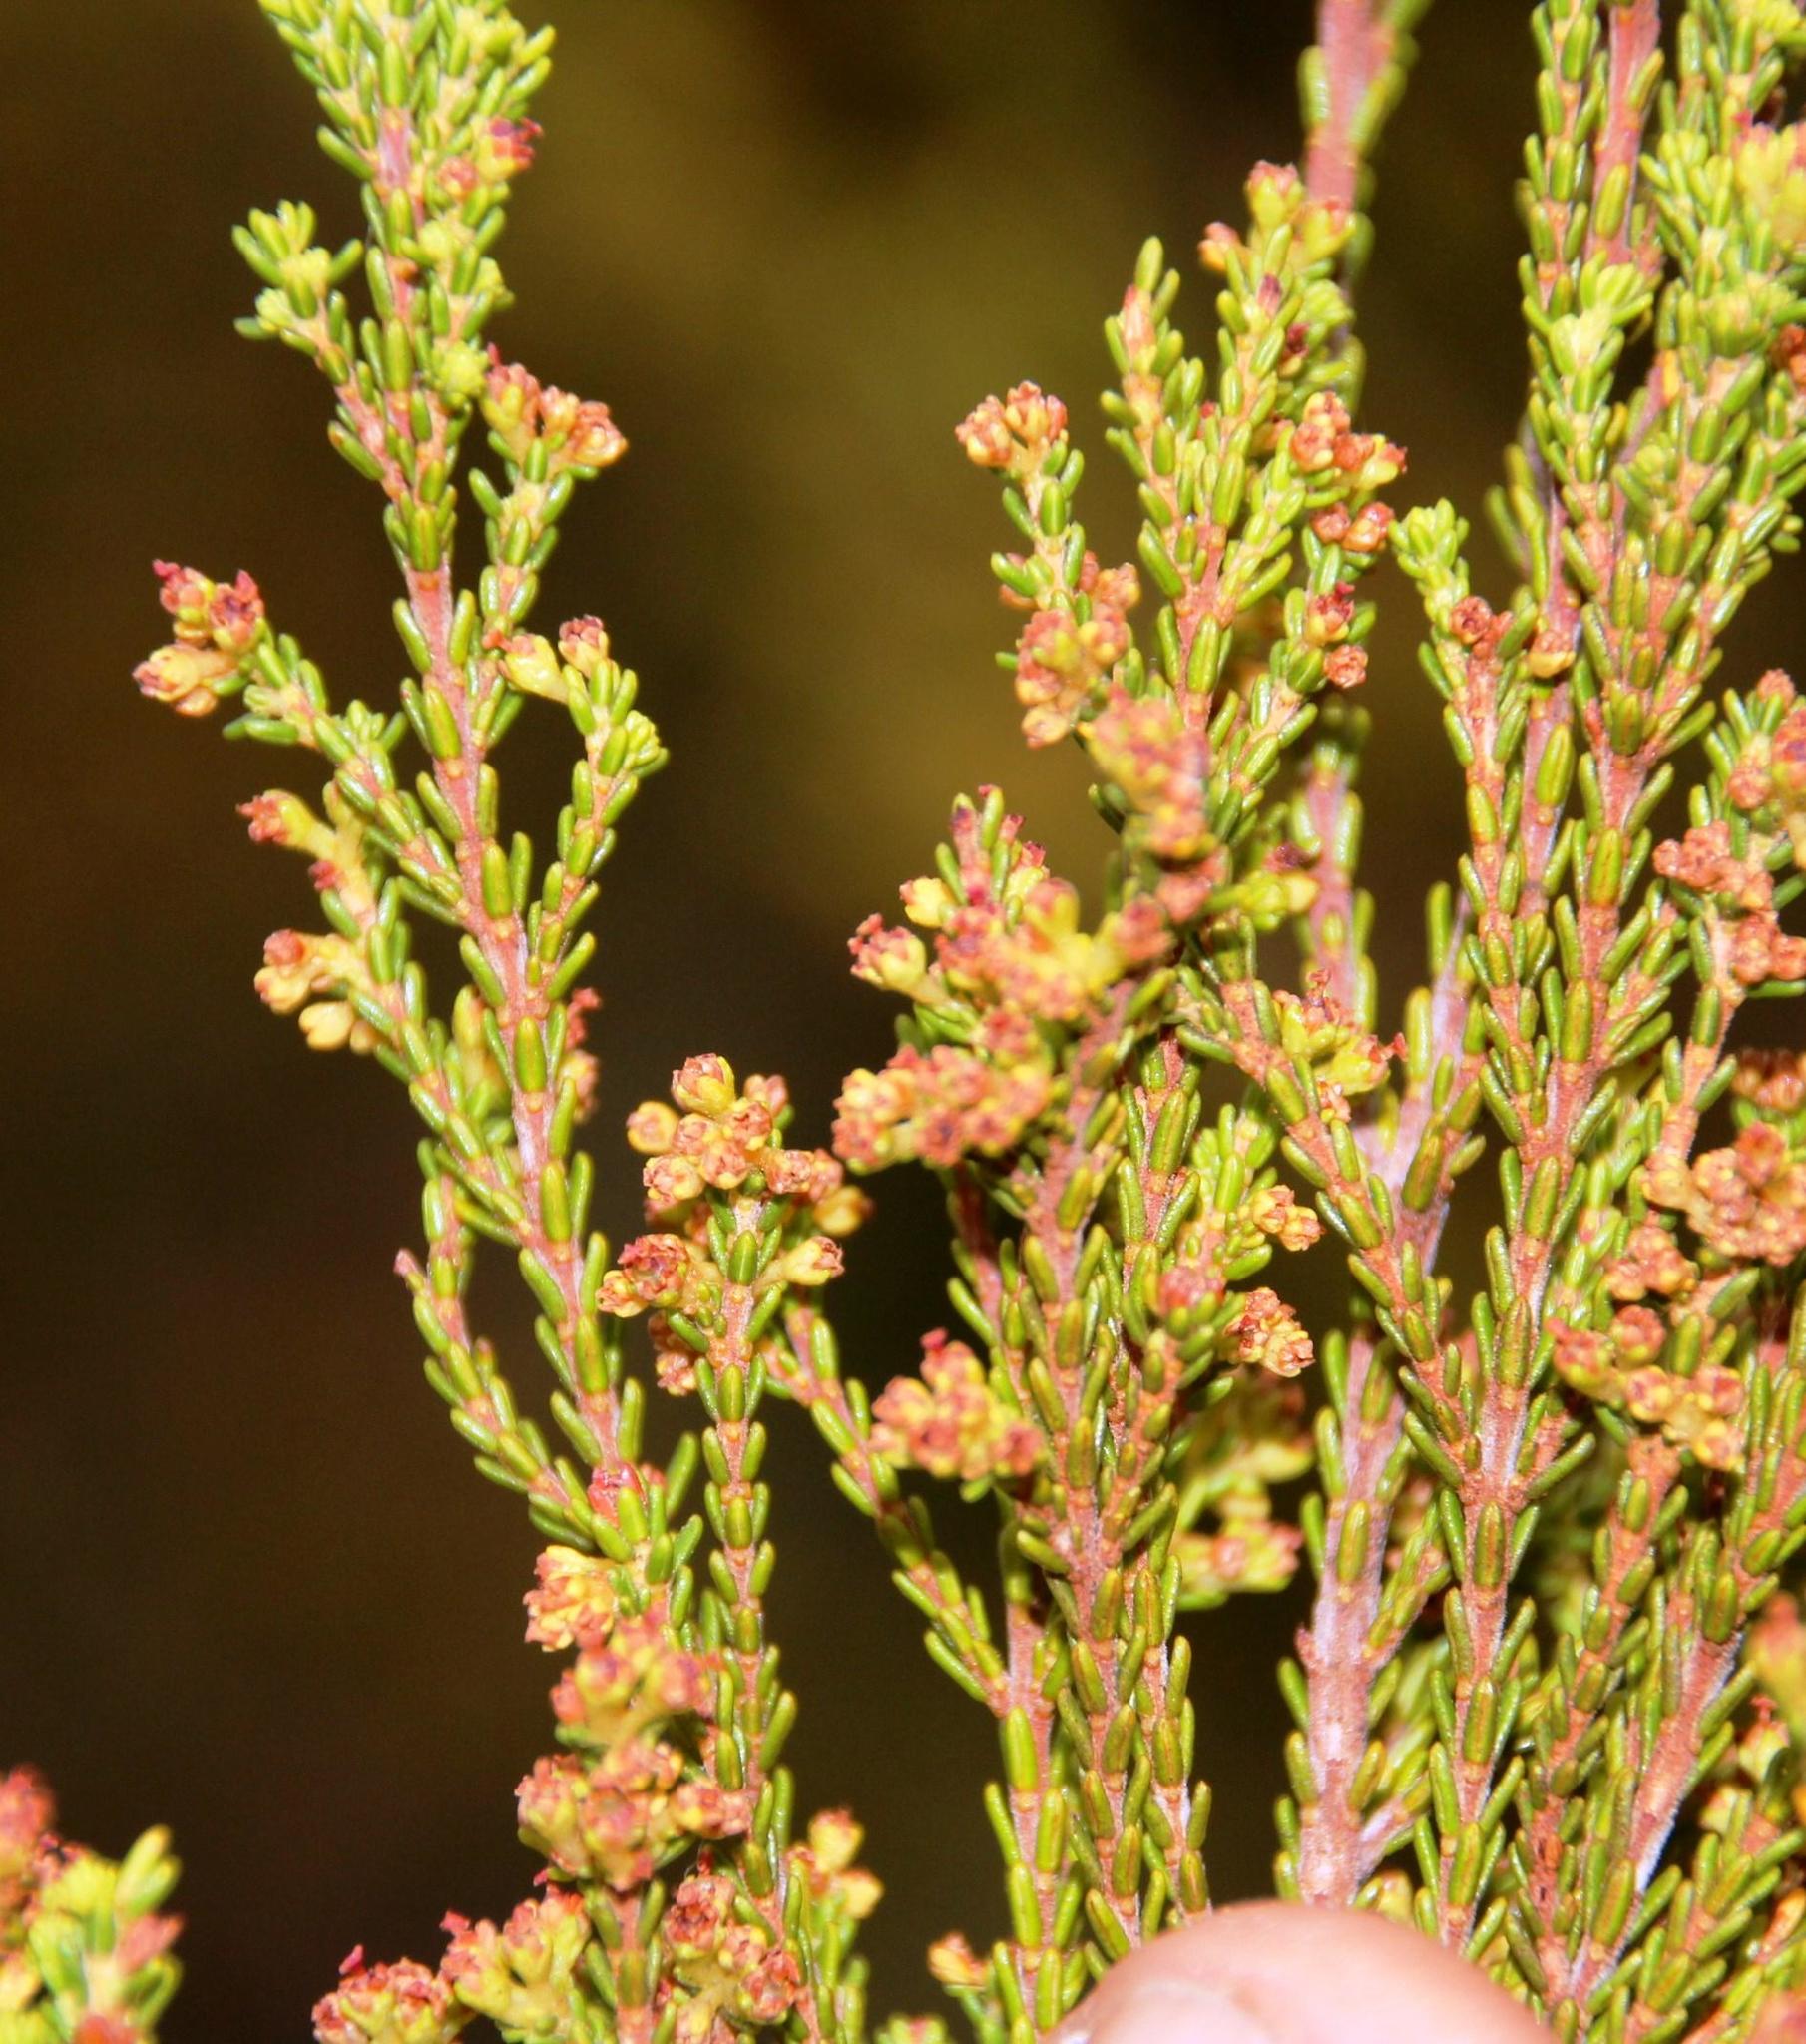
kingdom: Plantae
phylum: Tracheophyta
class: Magnoliopsida
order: Ericales
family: Ericaceae
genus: Erica
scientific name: Erica tristis
